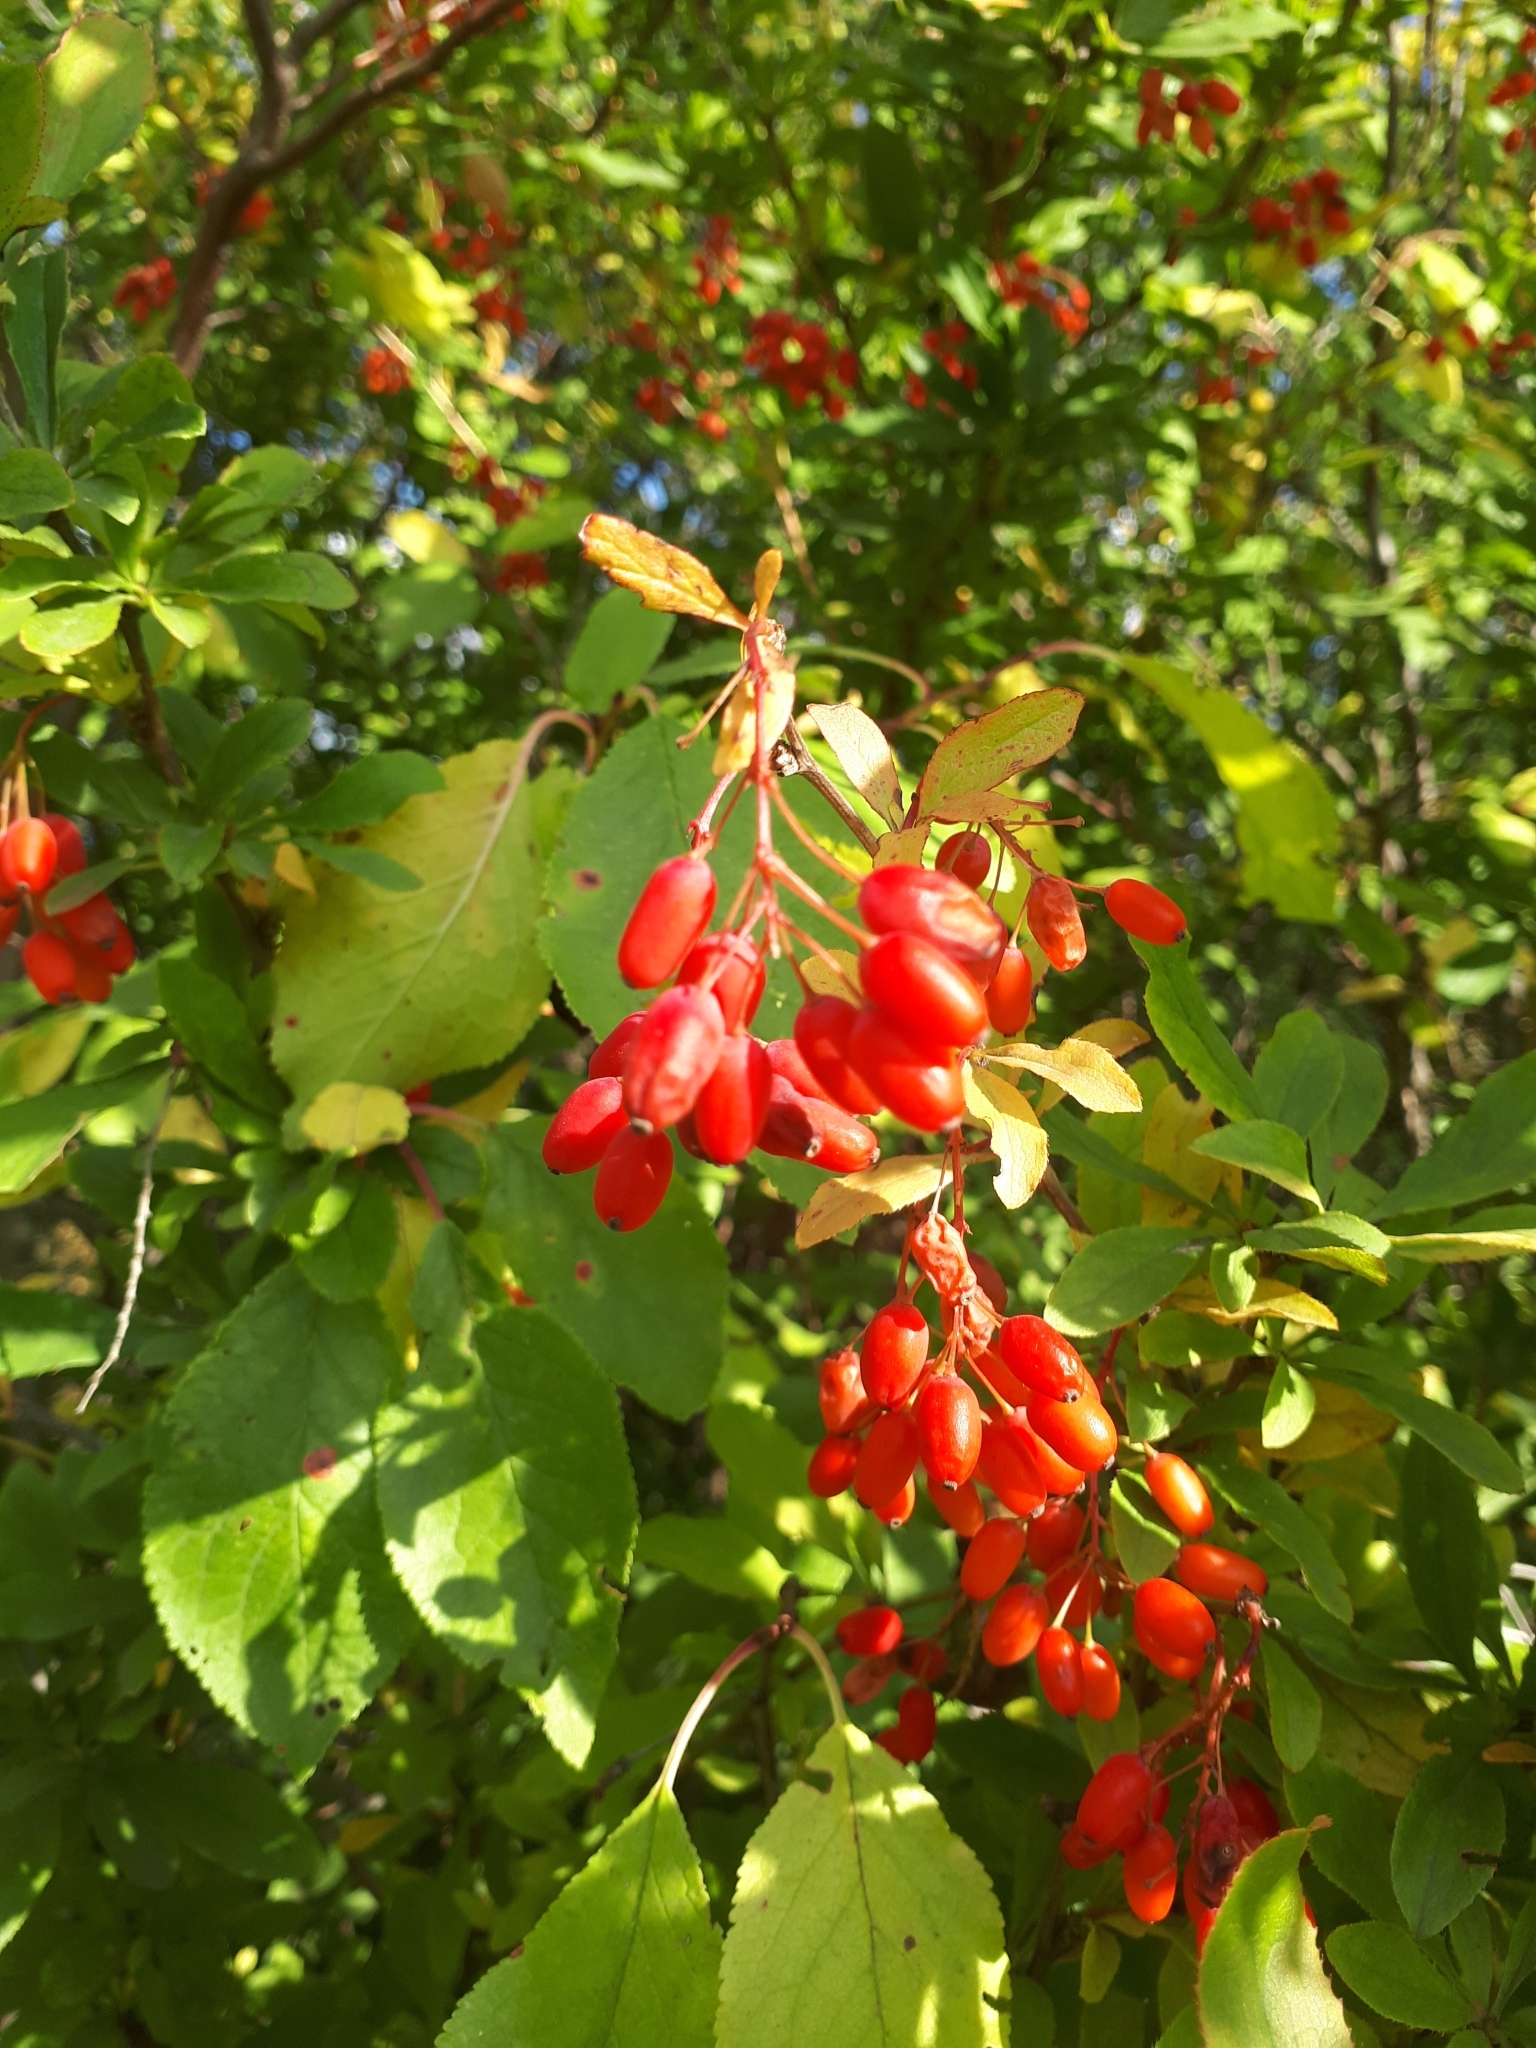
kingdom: Plantae
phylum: Tracheophyta
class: Magnoliopsida
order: Ranunculales
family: Berberidaceae
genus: Berberis
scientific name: Berberis vulgaris
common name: Barberry
